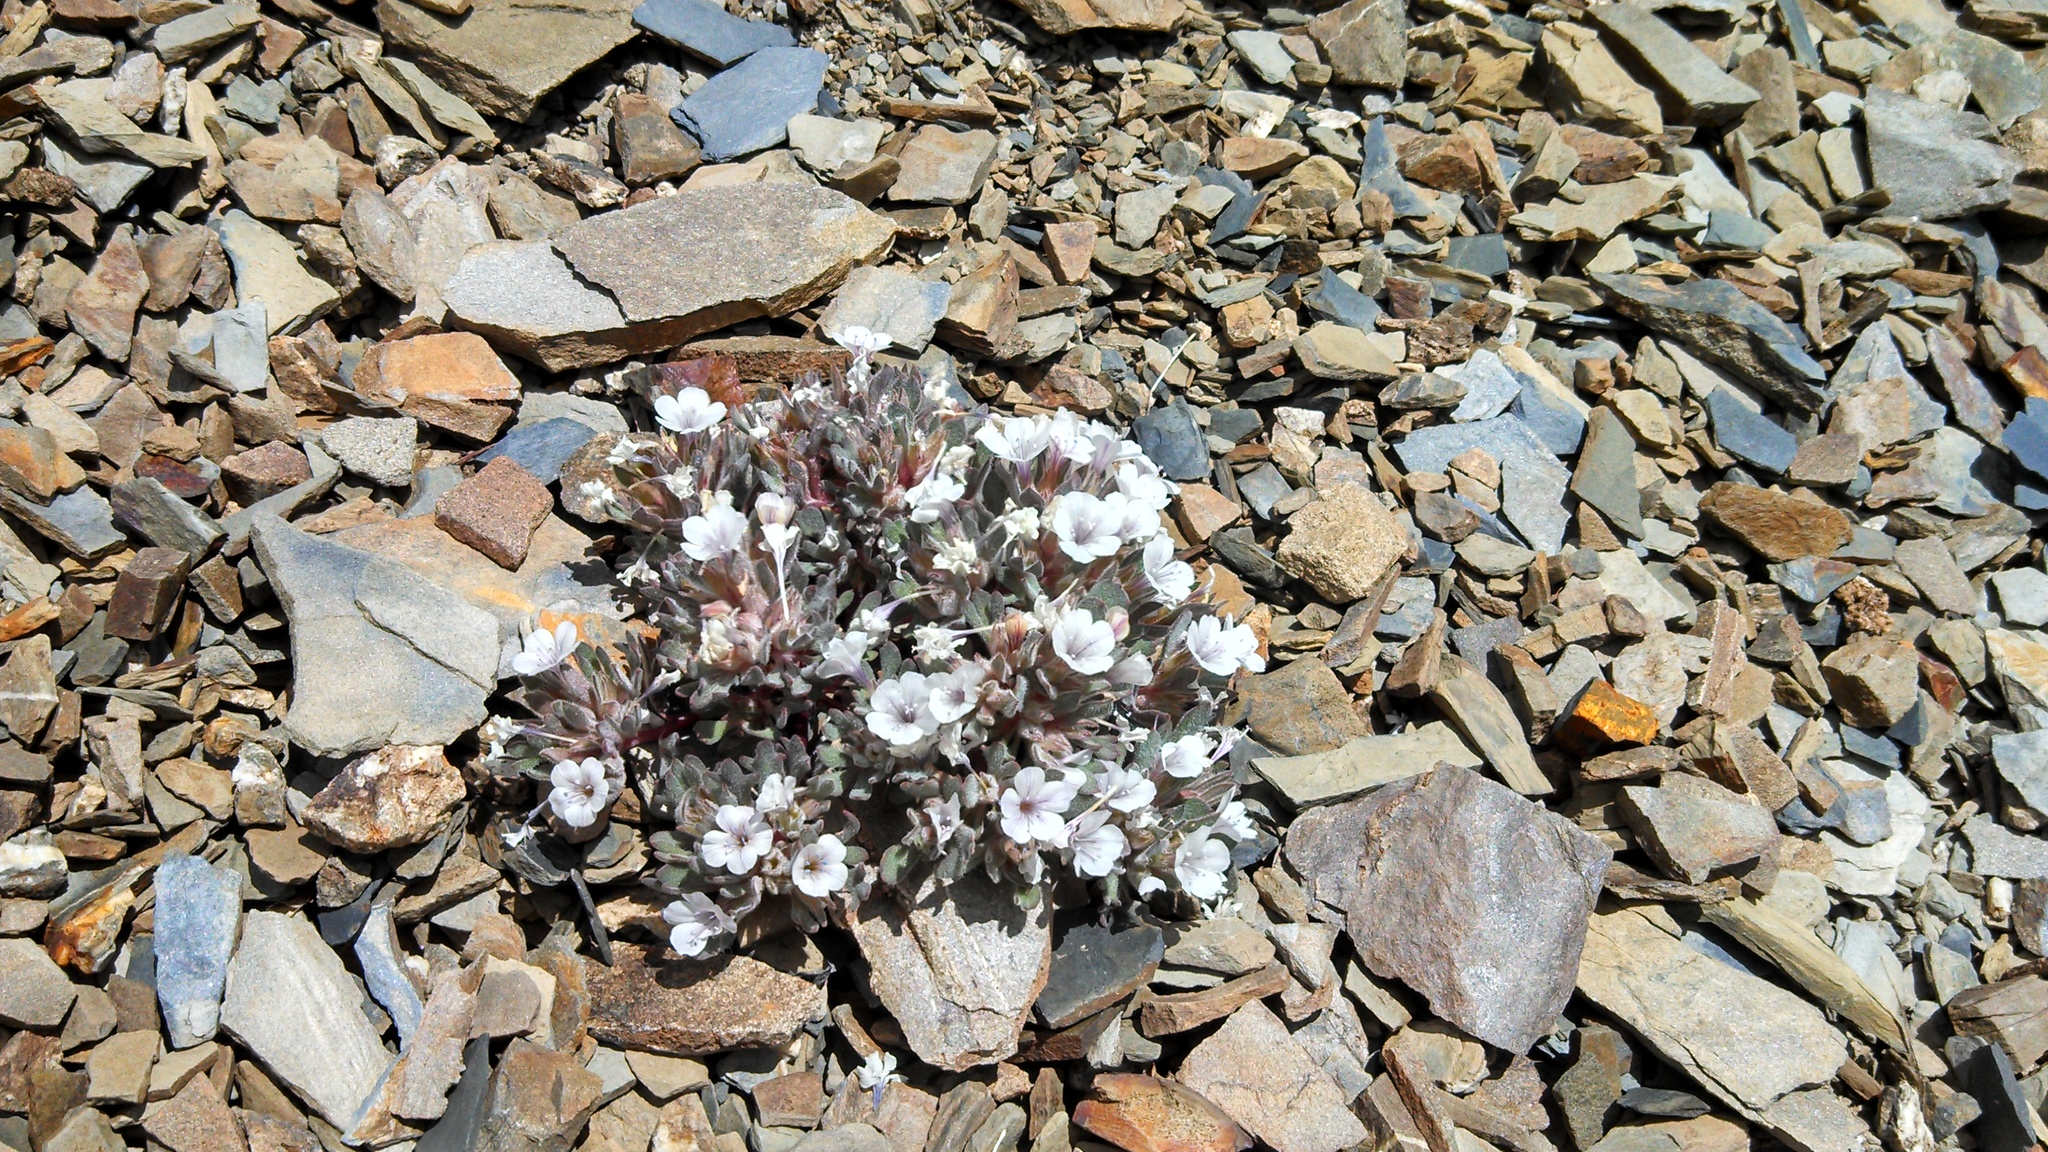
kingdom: Plantae
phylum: Tracheophyta
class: Magnoliopsida
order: Ericales
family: Polemoniaceae
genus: Collomia
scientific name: Collomia larsenii
